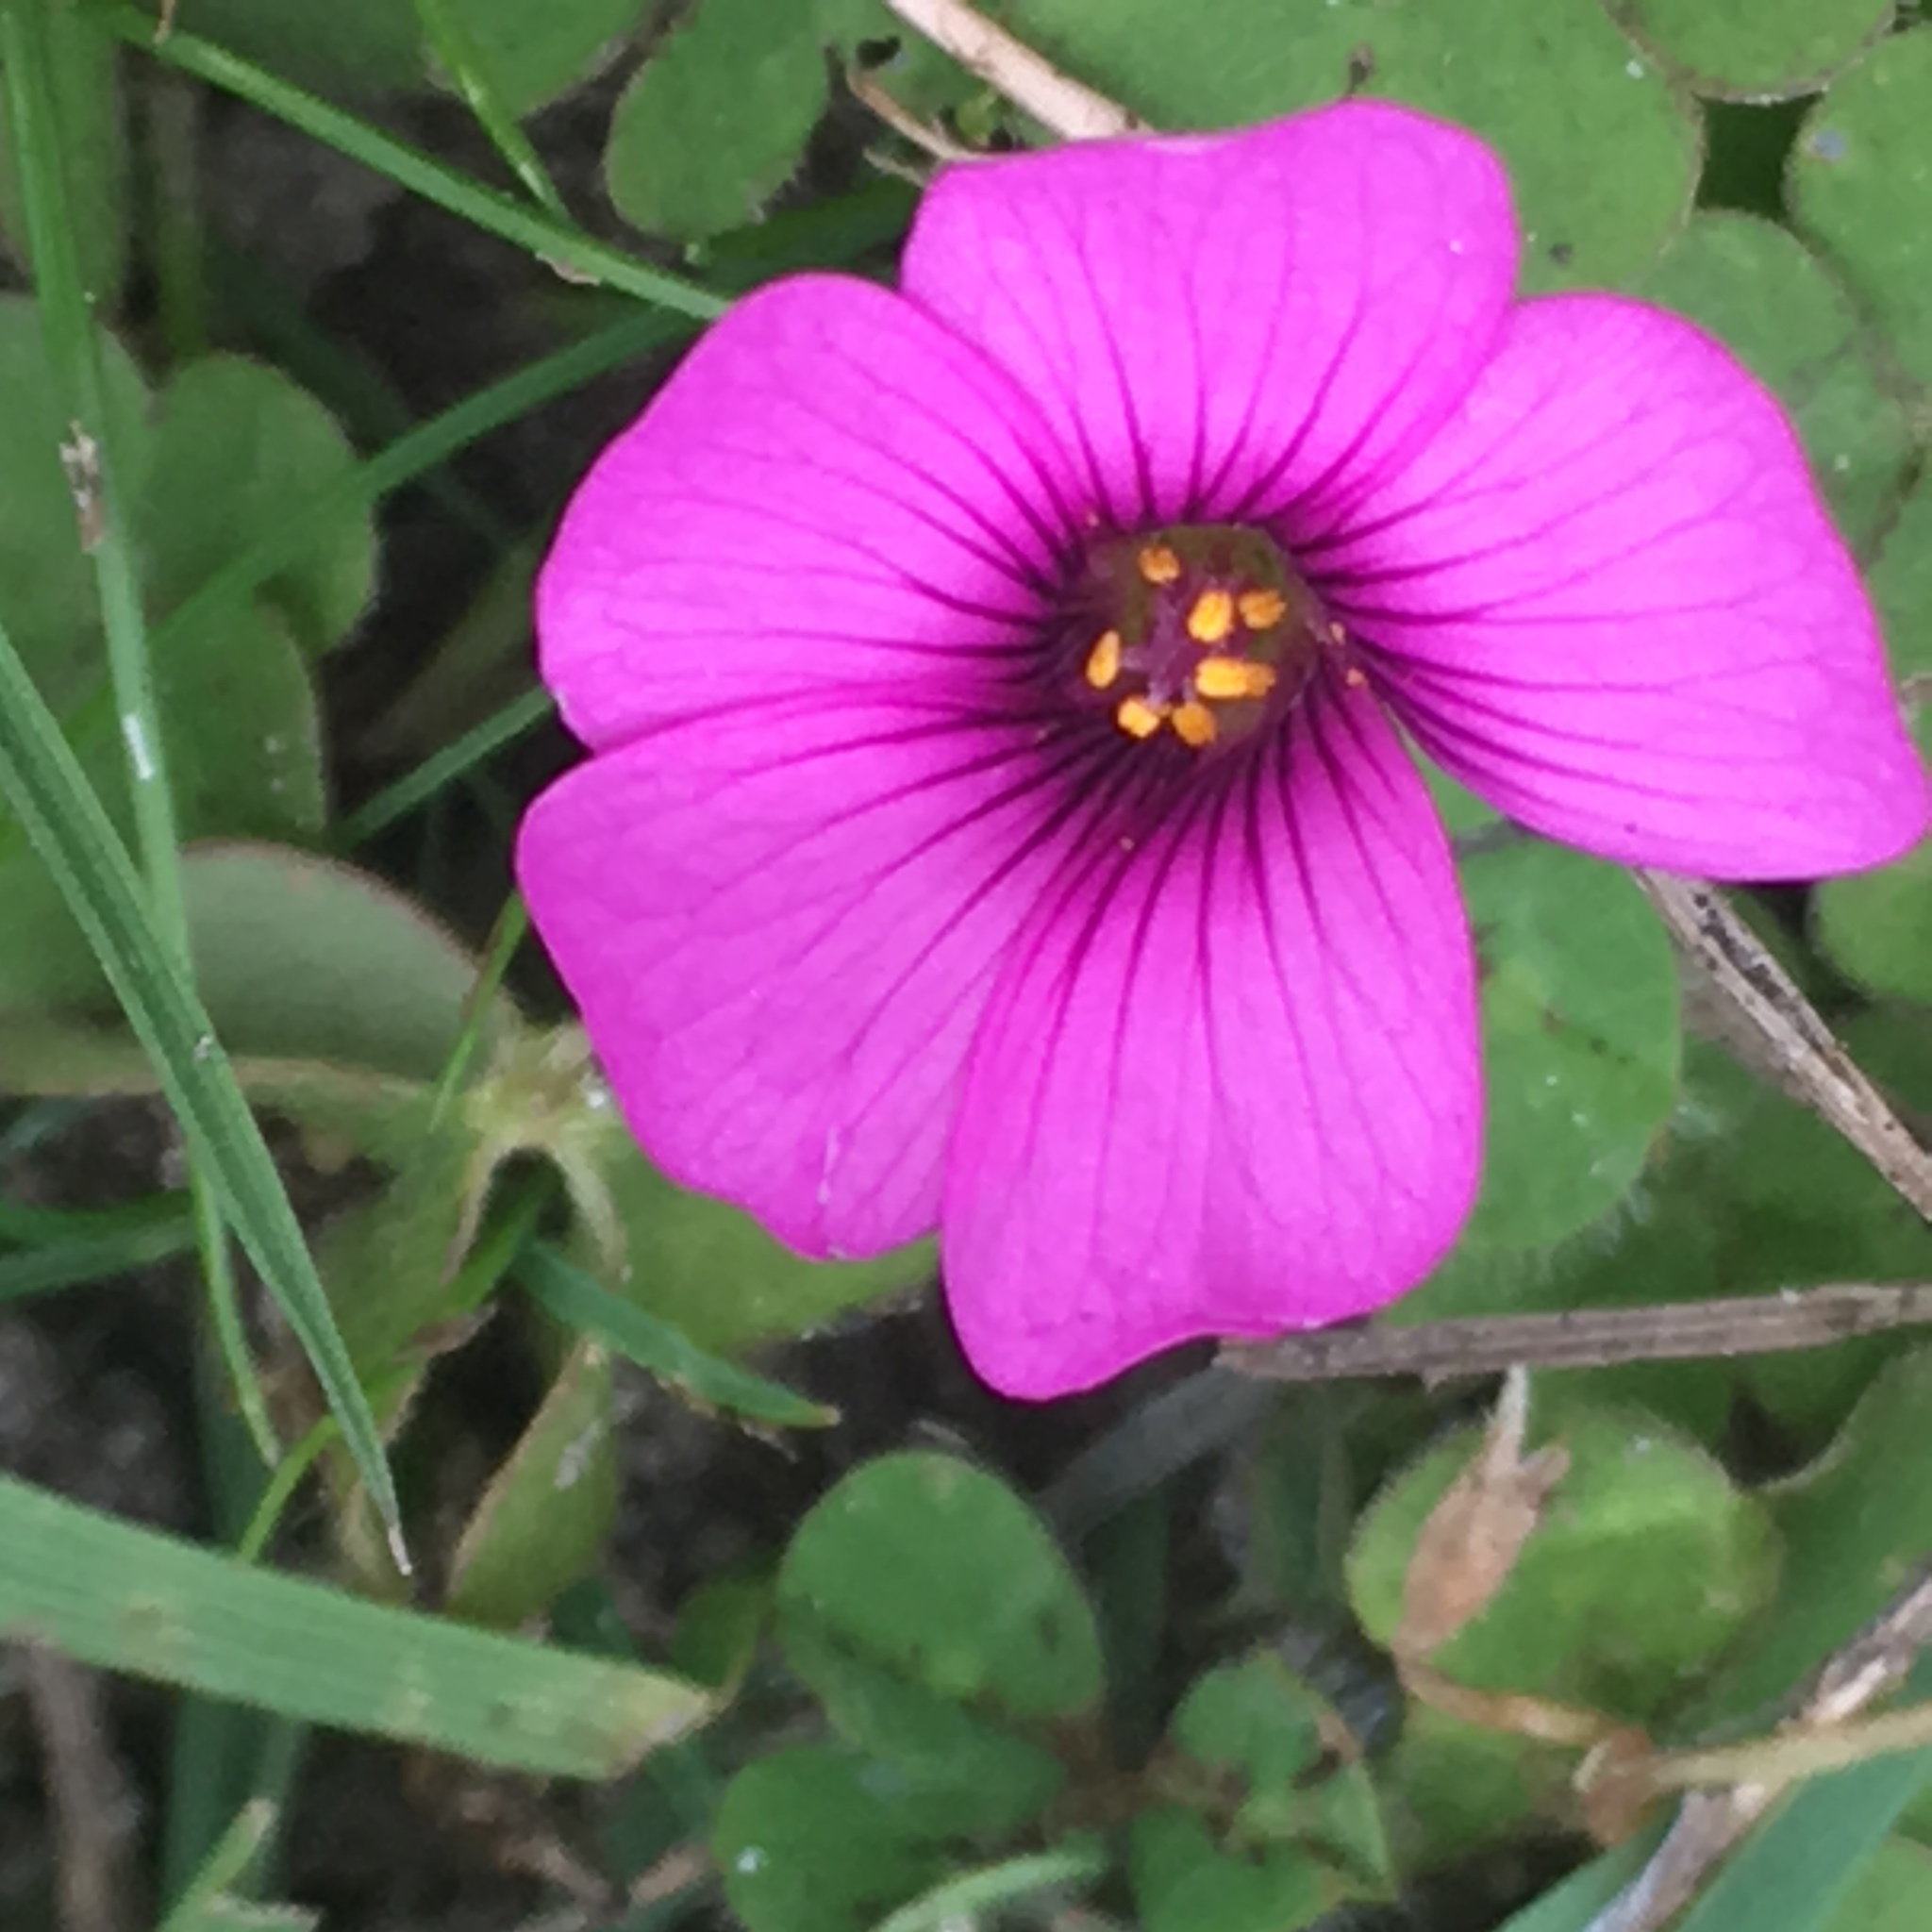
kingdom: Plantae
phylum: Tracheophyta
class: Magnoliopsida
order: Oxalidales
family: Oxalidaceae
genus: Oxalis
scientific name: Oxalis articulata
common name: Pink-sorrel
